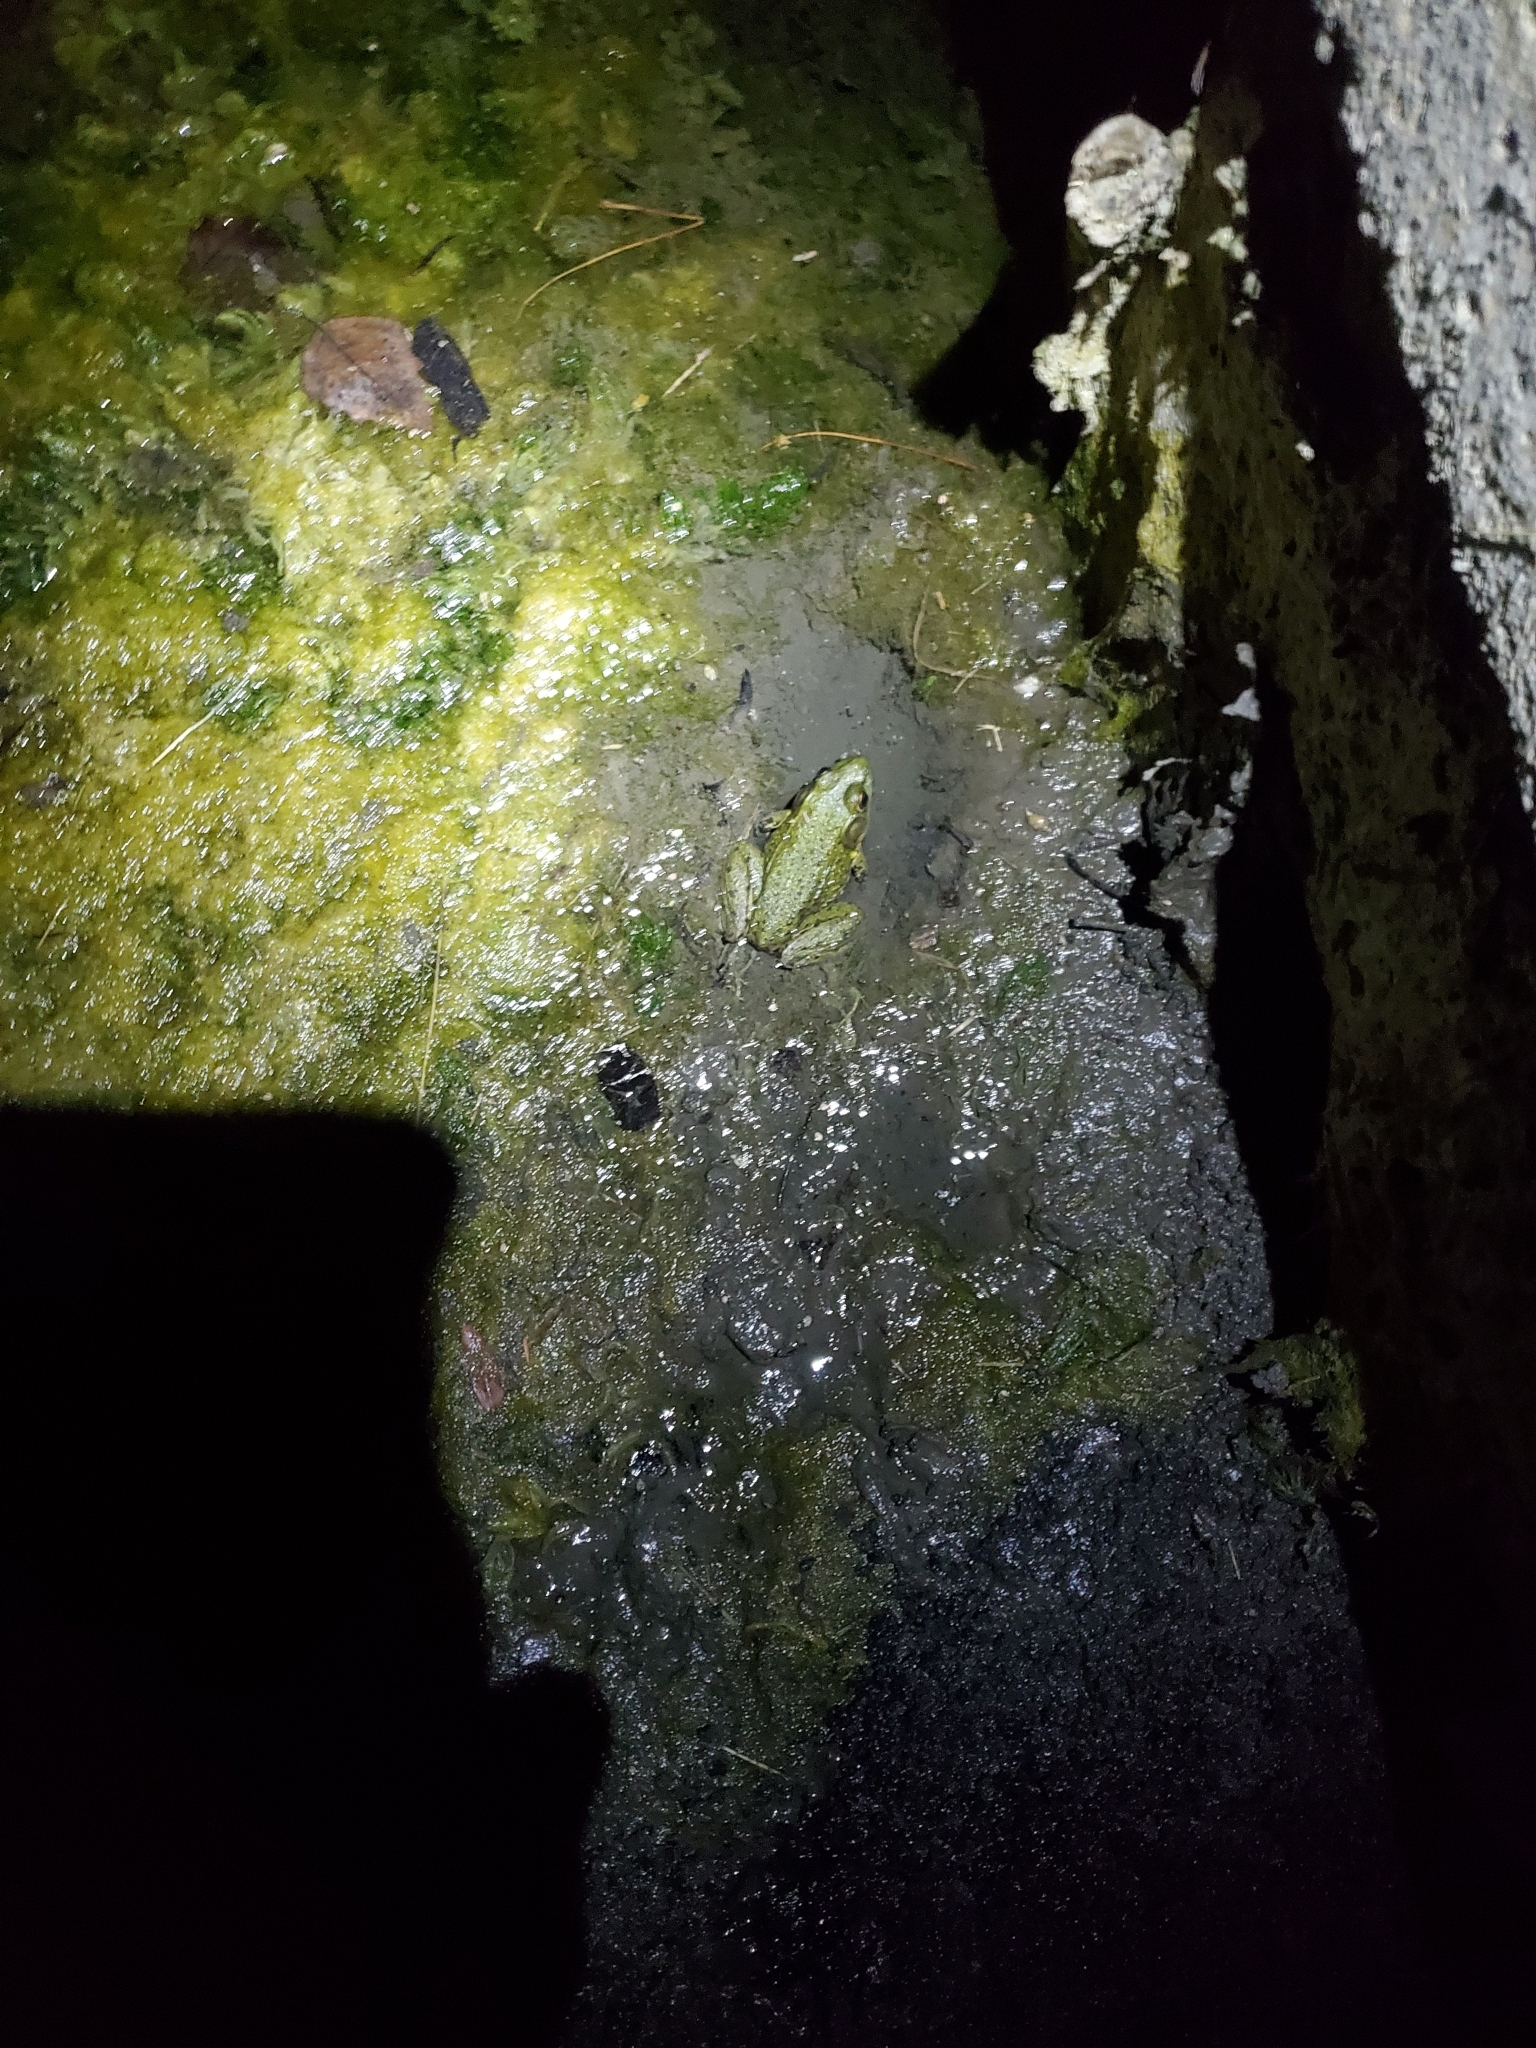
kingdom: Animalia
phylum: Chordata
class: Amphibia
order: Anura
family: Ranidae
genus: Lithobates
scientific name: Lithobates clamitans
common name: Green frog
